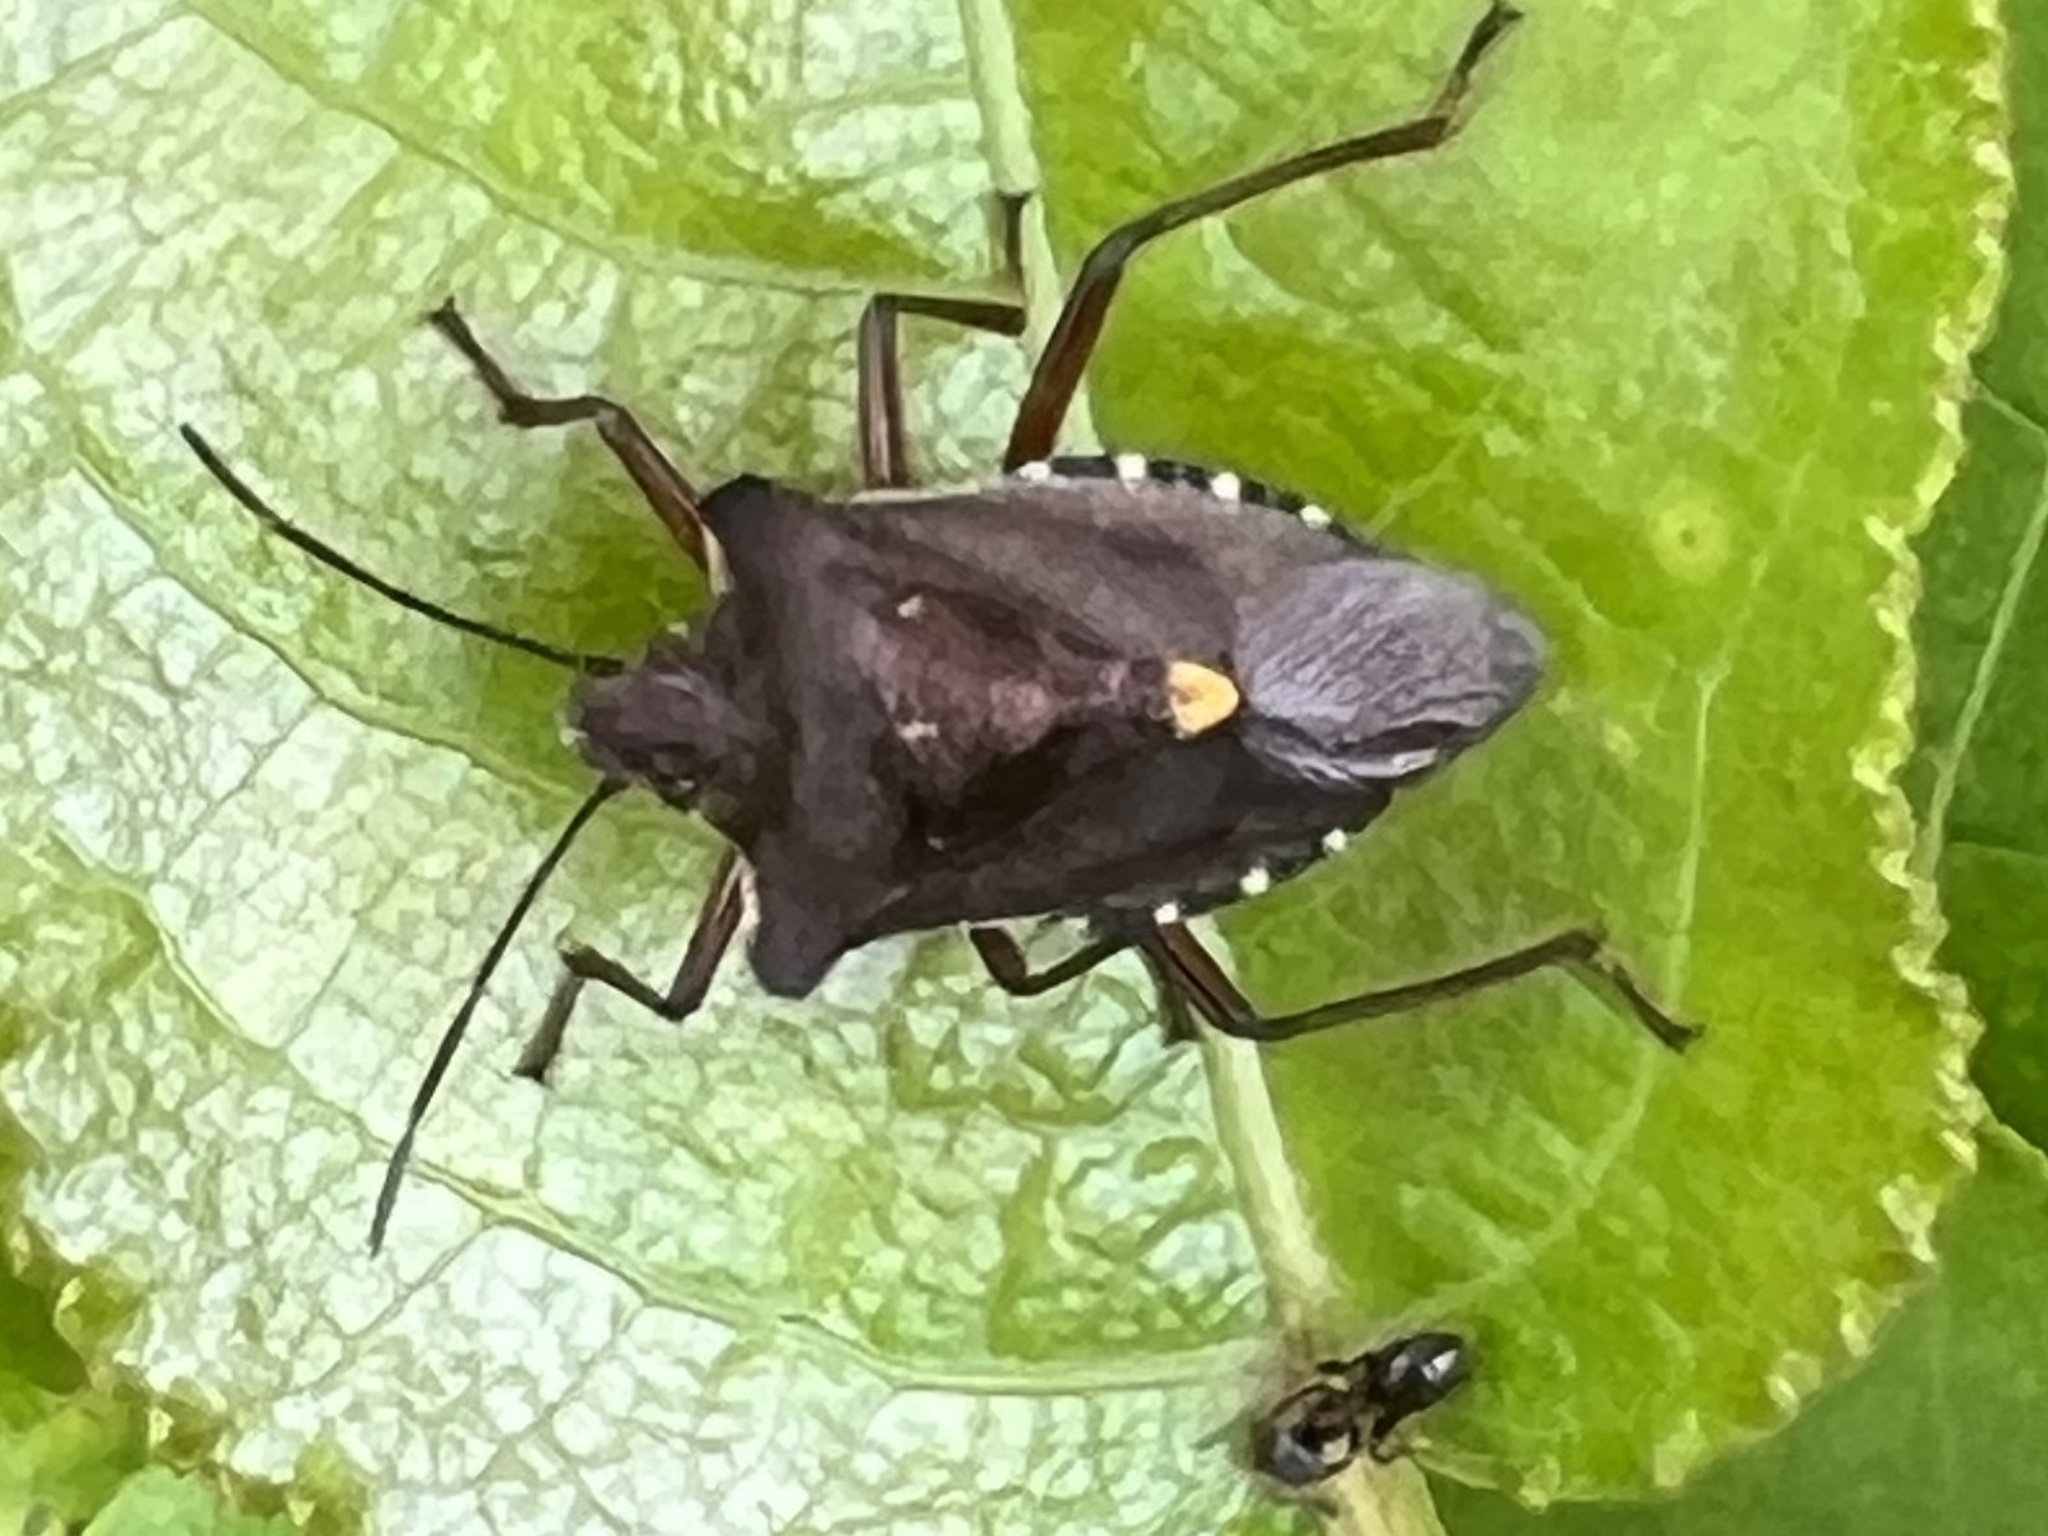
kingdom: Animalia
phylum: Arthropoda
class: Insecta
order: Hemiptera
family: Pentatomidae
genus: Pentatoma
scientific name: Pentatoma rufipes
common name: Forest bug
